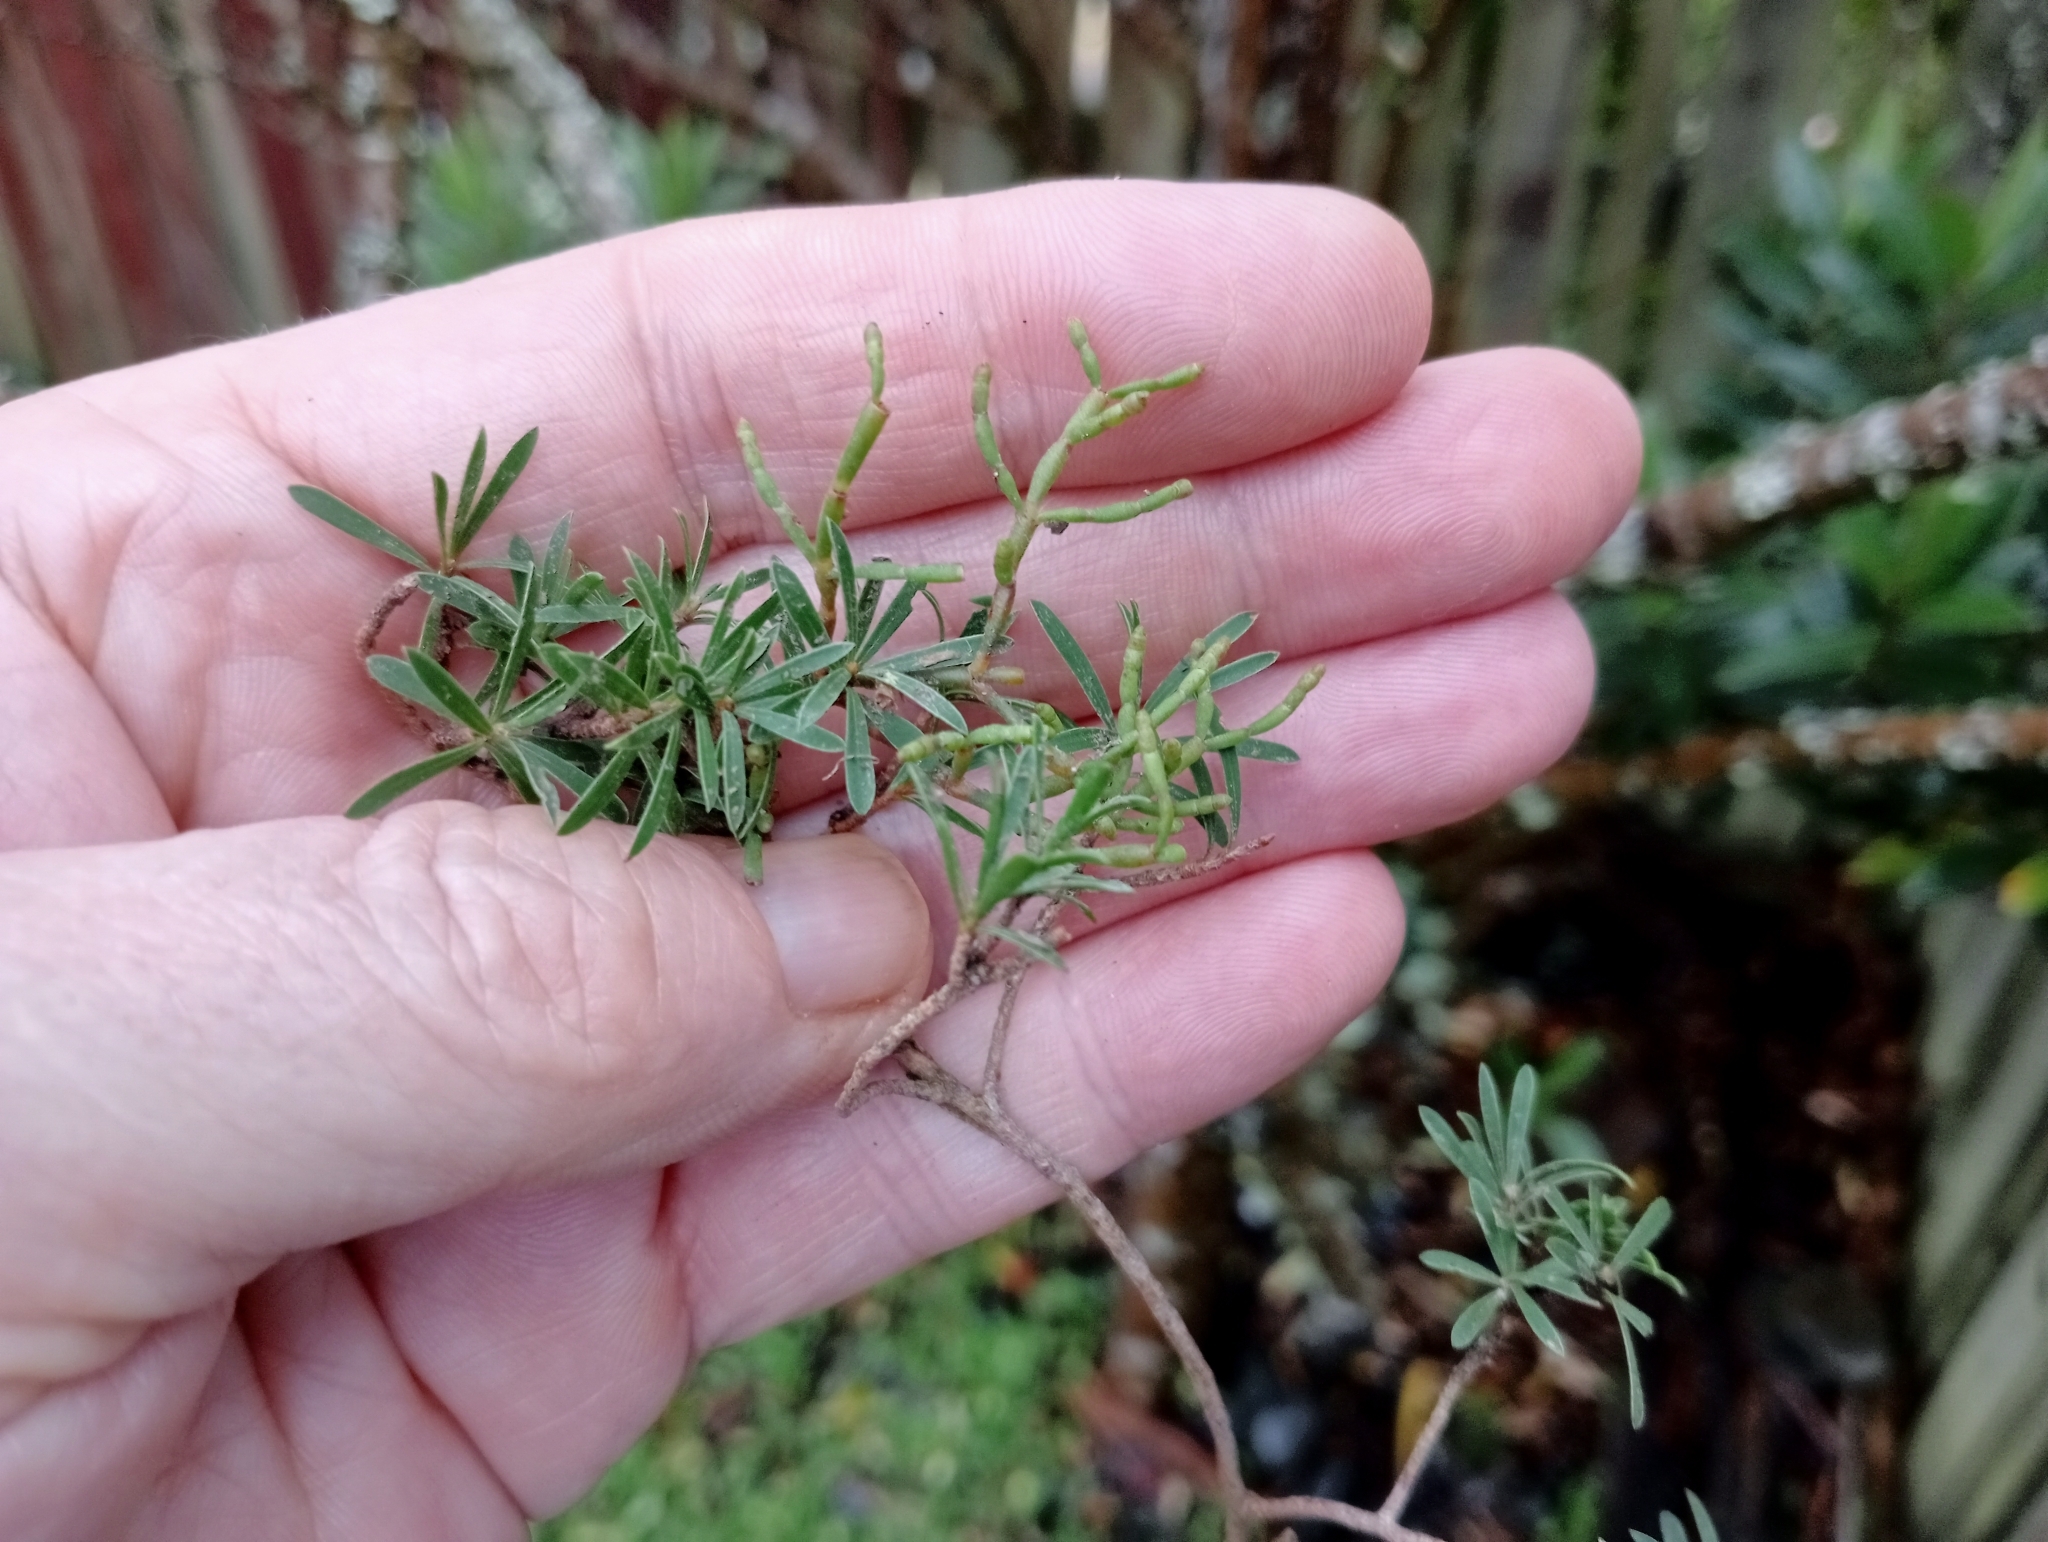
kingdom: Plantae
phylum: Tracheophyta
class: Magnoliopsida
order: Santalales
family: Viscaceae
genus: Korthalsella
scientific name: Korthalsella salicornioides
